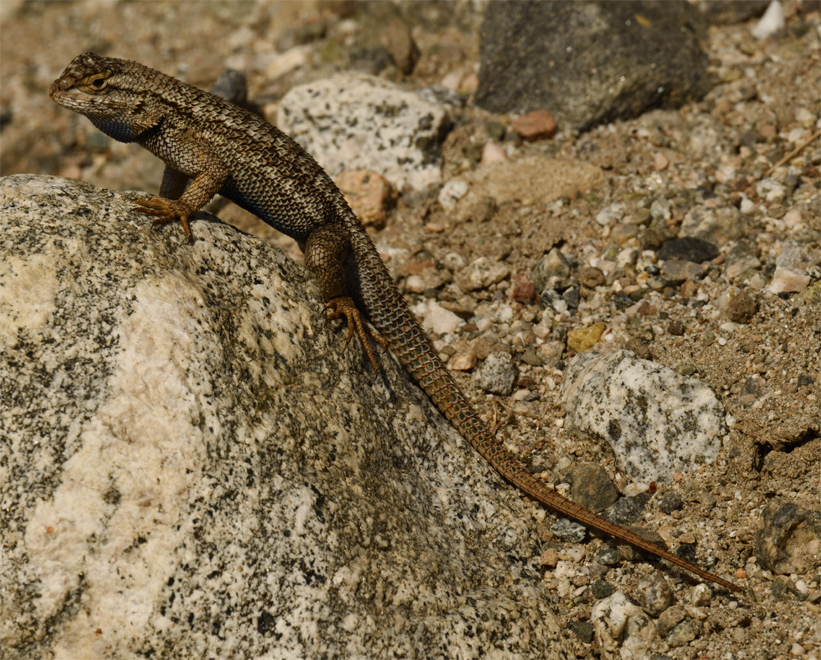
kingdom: Animalia
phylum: Chordata
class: Squamata
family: Phrynosomatidae
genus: Sceloporus
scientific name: Sceloporus occidentalis
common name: Western fence lizard
